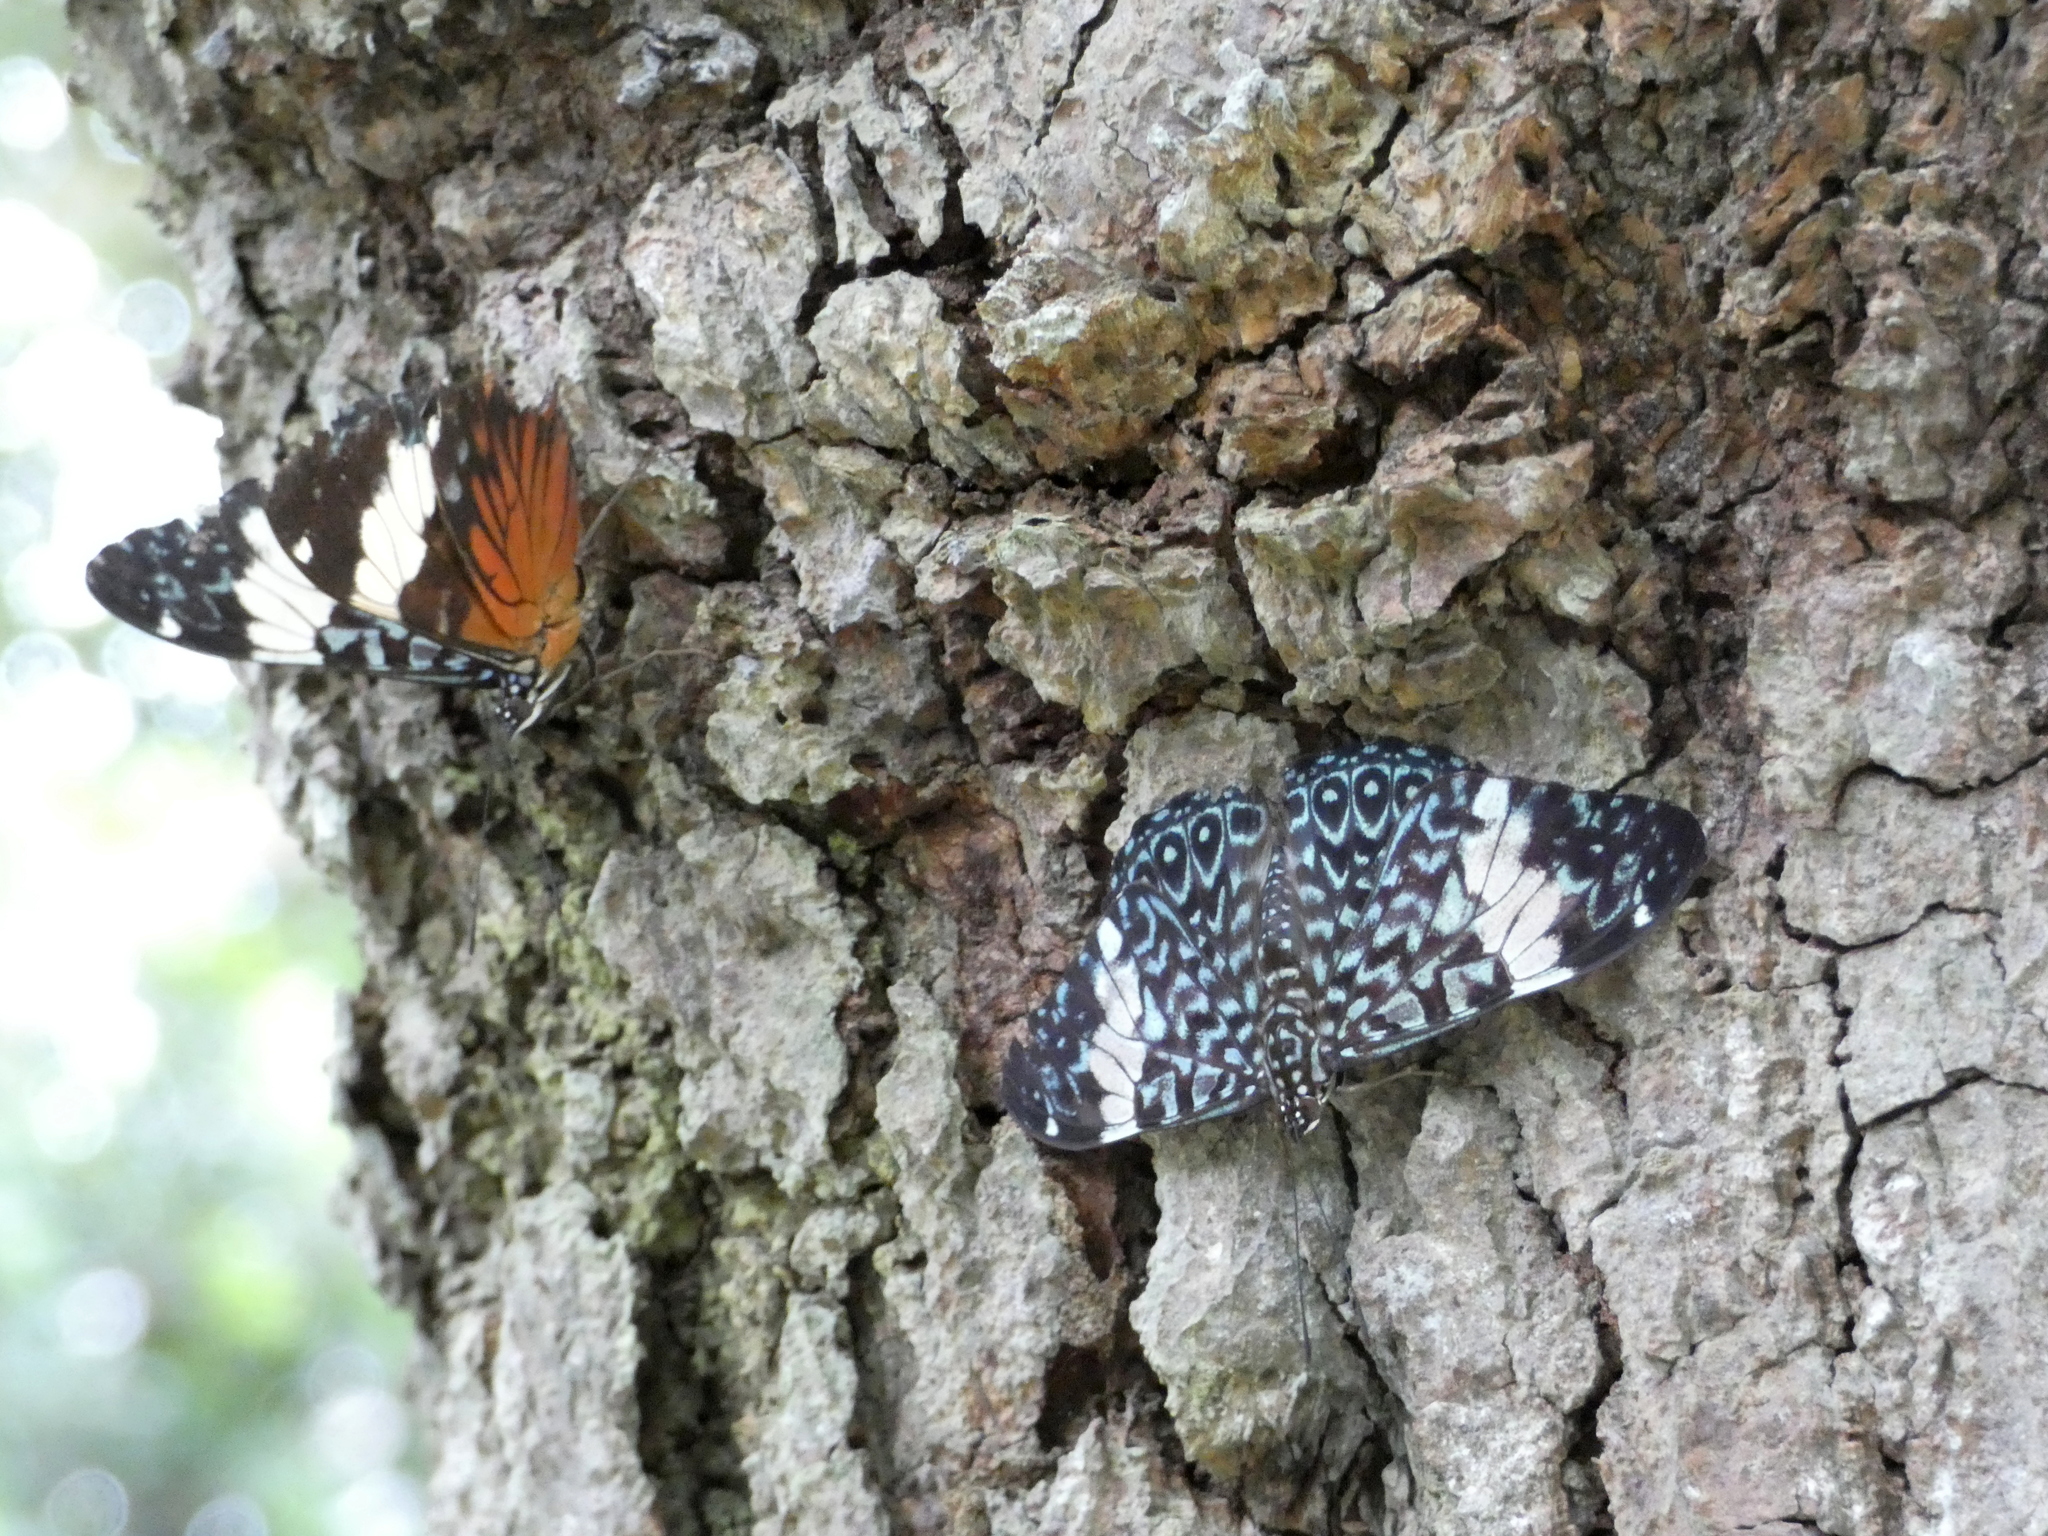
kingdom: Animalia
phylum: Arthropoda
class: Insecta
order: Lepidoptera
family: Nymphalidae
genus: Hamadryas
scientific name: Hamadryas amphinome
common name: Red cracker
